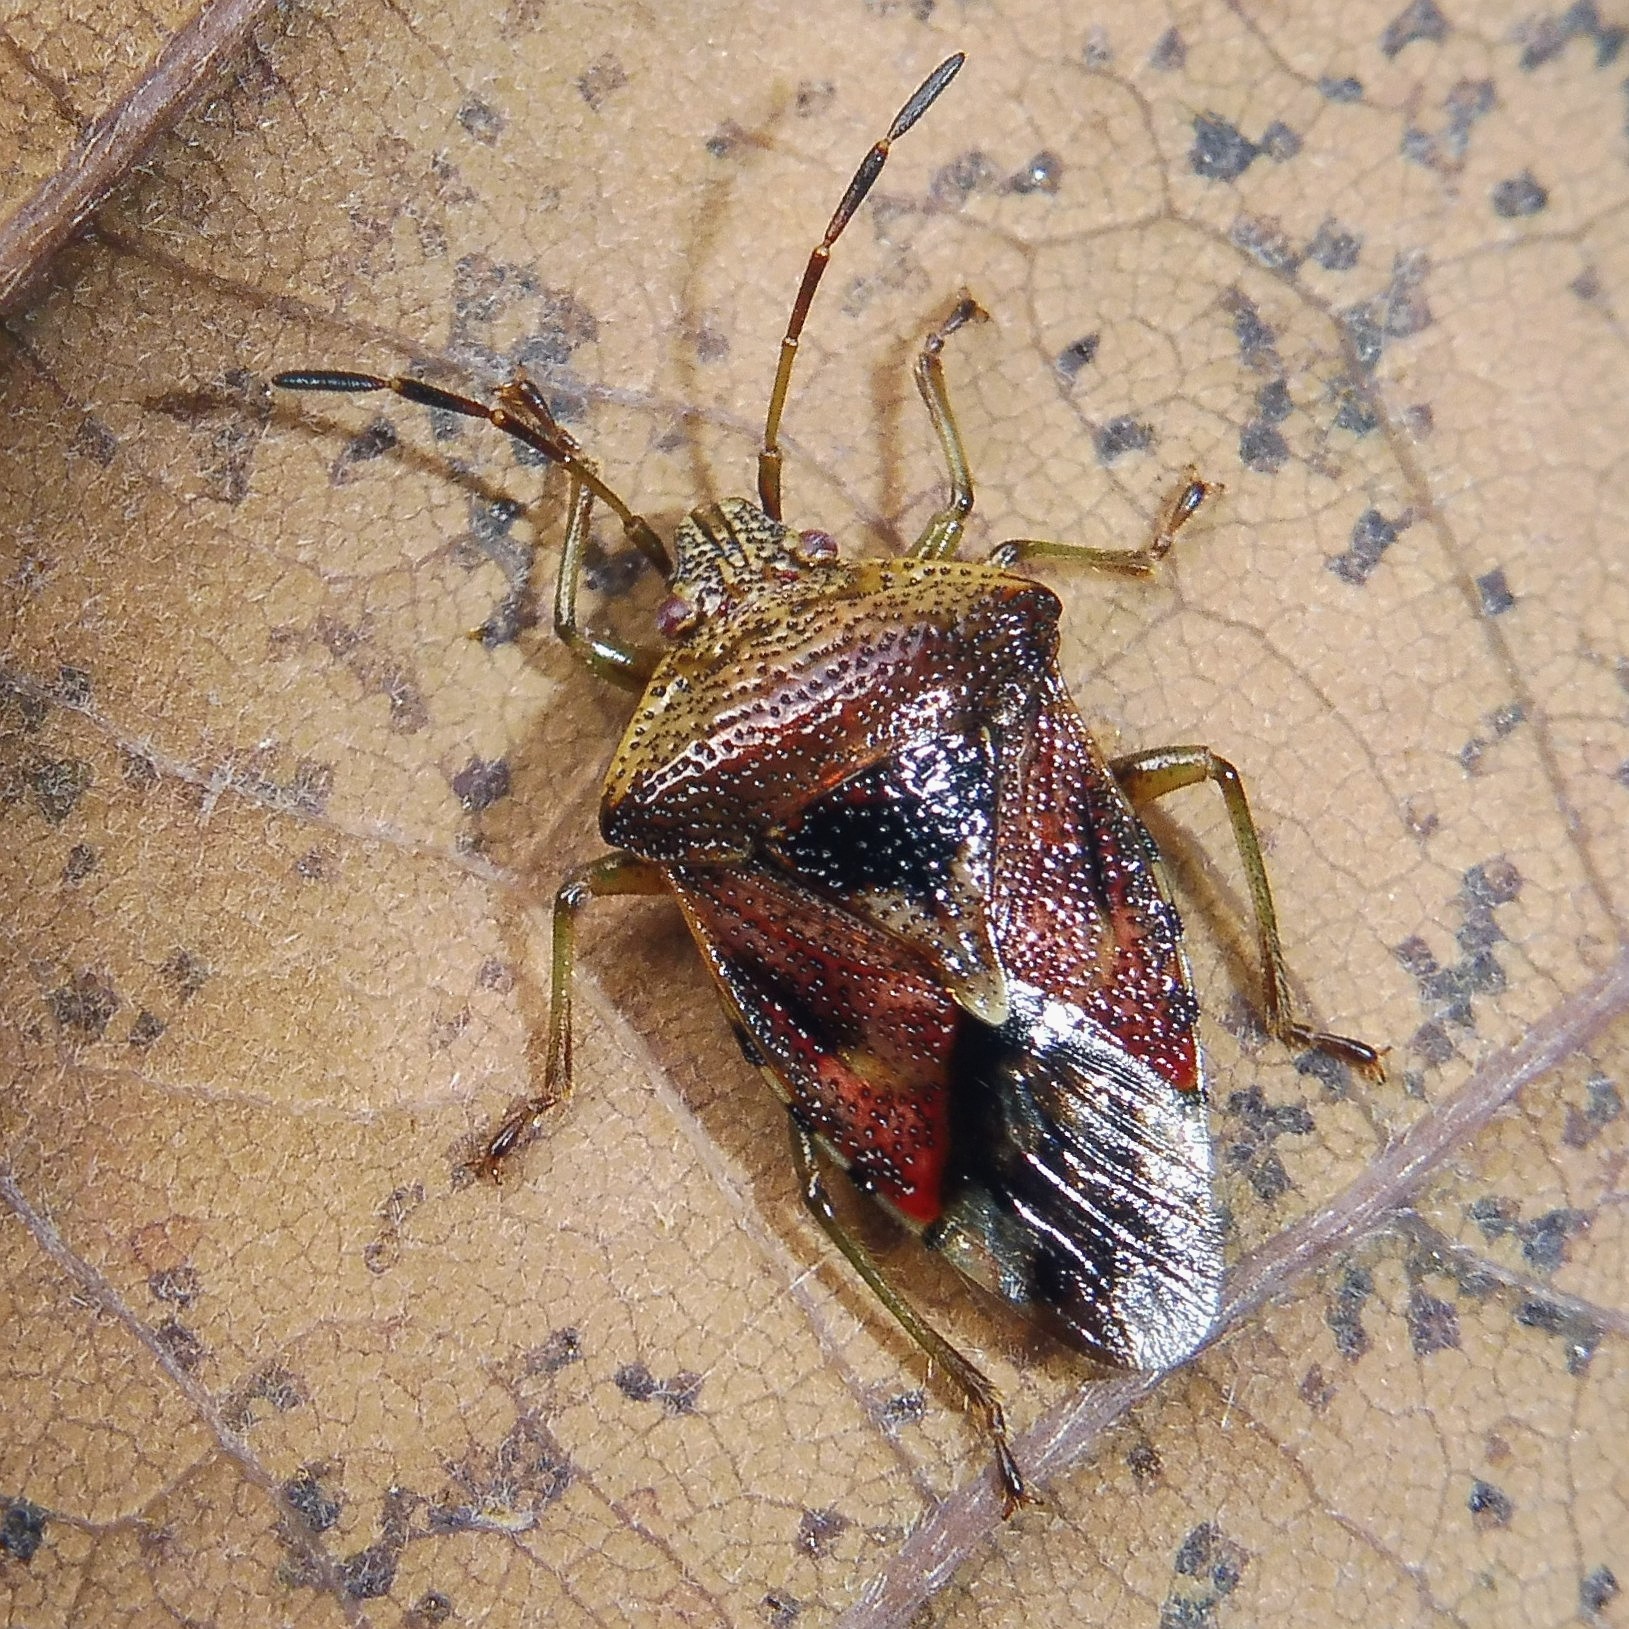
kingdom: Animalia
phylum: Arthropoda
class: Insecta
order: Hemiptera
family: Acanthosomatidae
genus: Elasmucha
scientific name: Elasmucha grisea
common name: Parent bug
